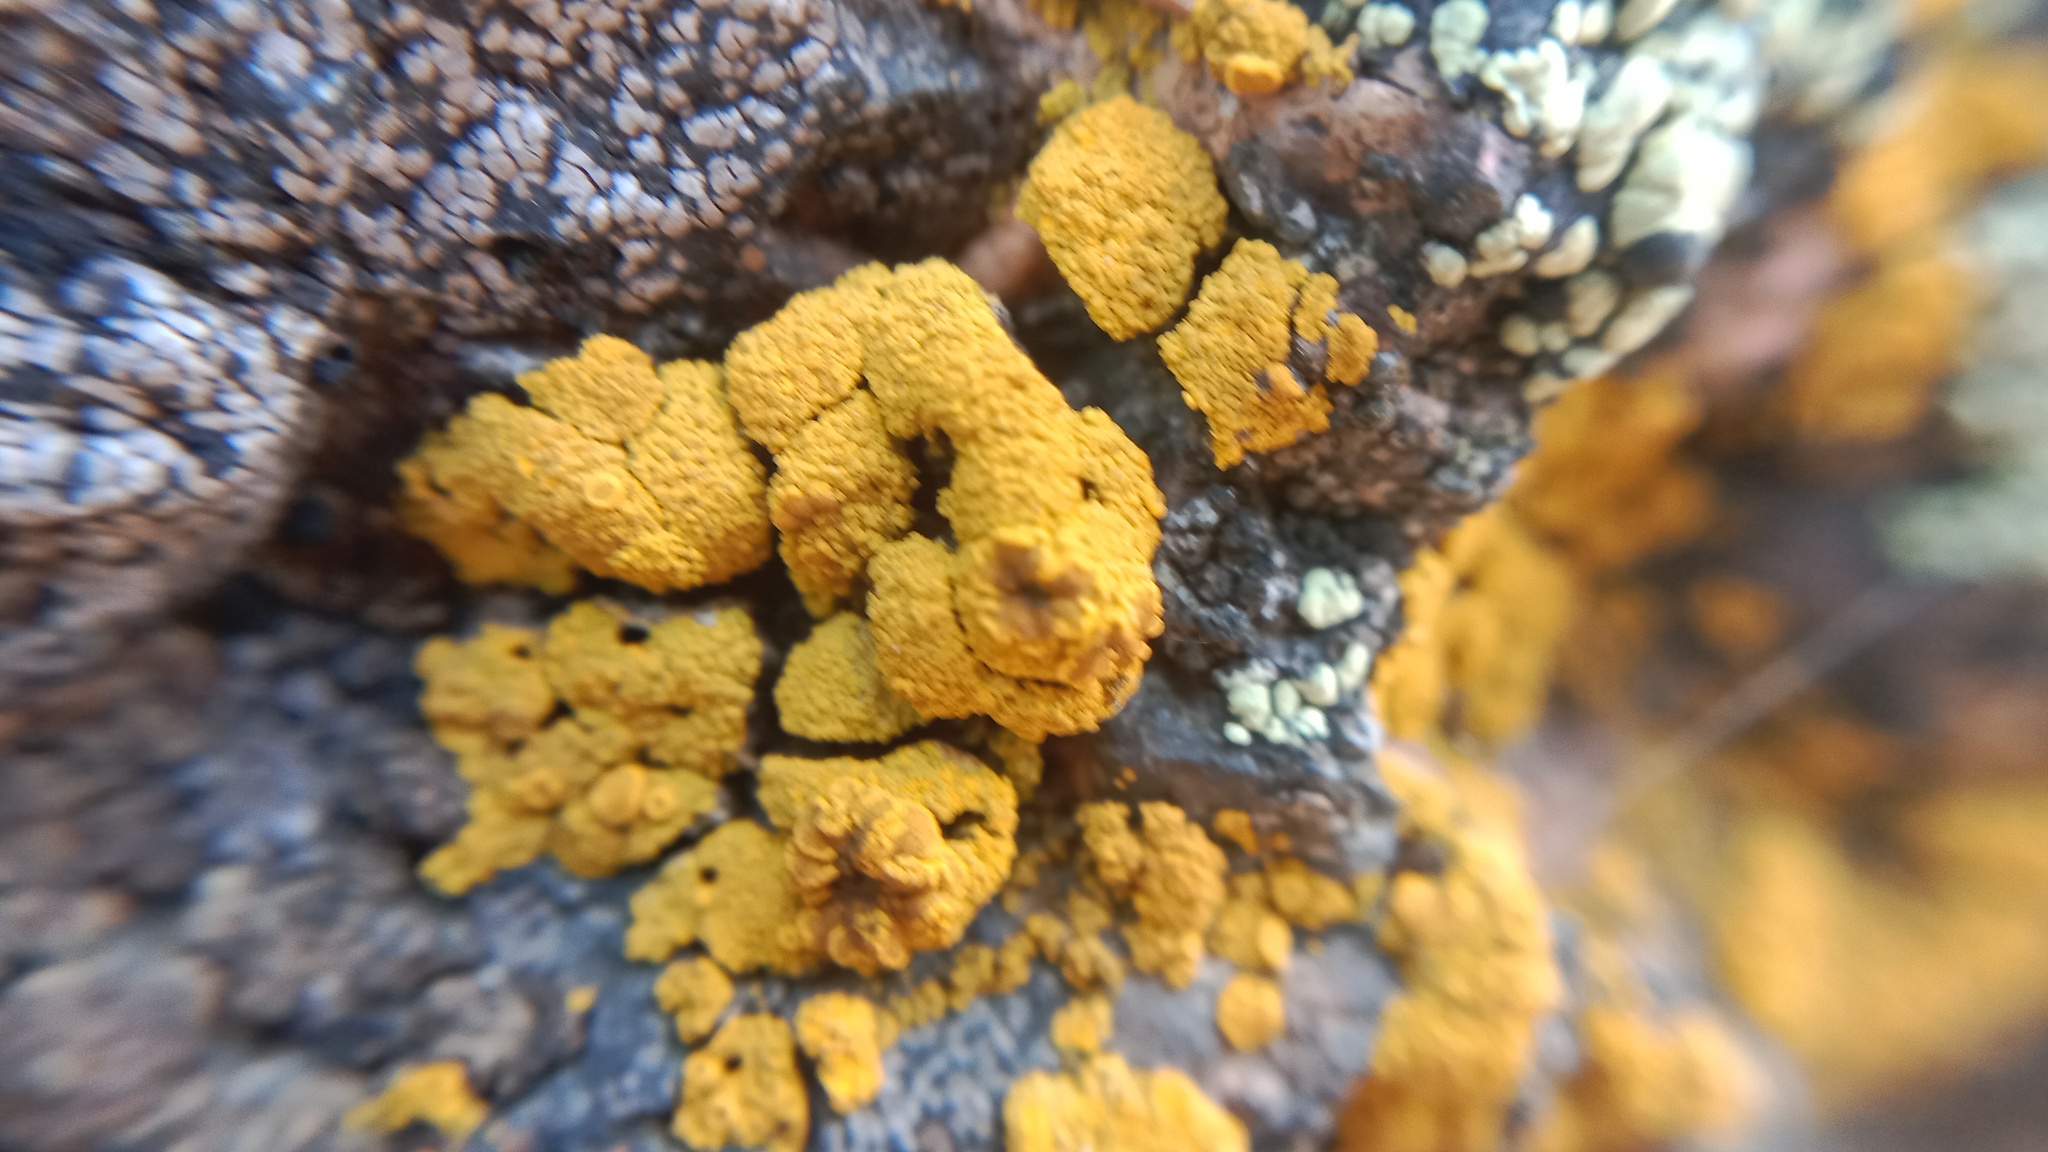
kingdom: Fungi
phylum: Ascomycota
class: Candelariomycetes
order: Candelariales
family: Candelariaceae
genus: Candelariella
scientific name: Candelariella vitellina
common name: Common goldspeck
